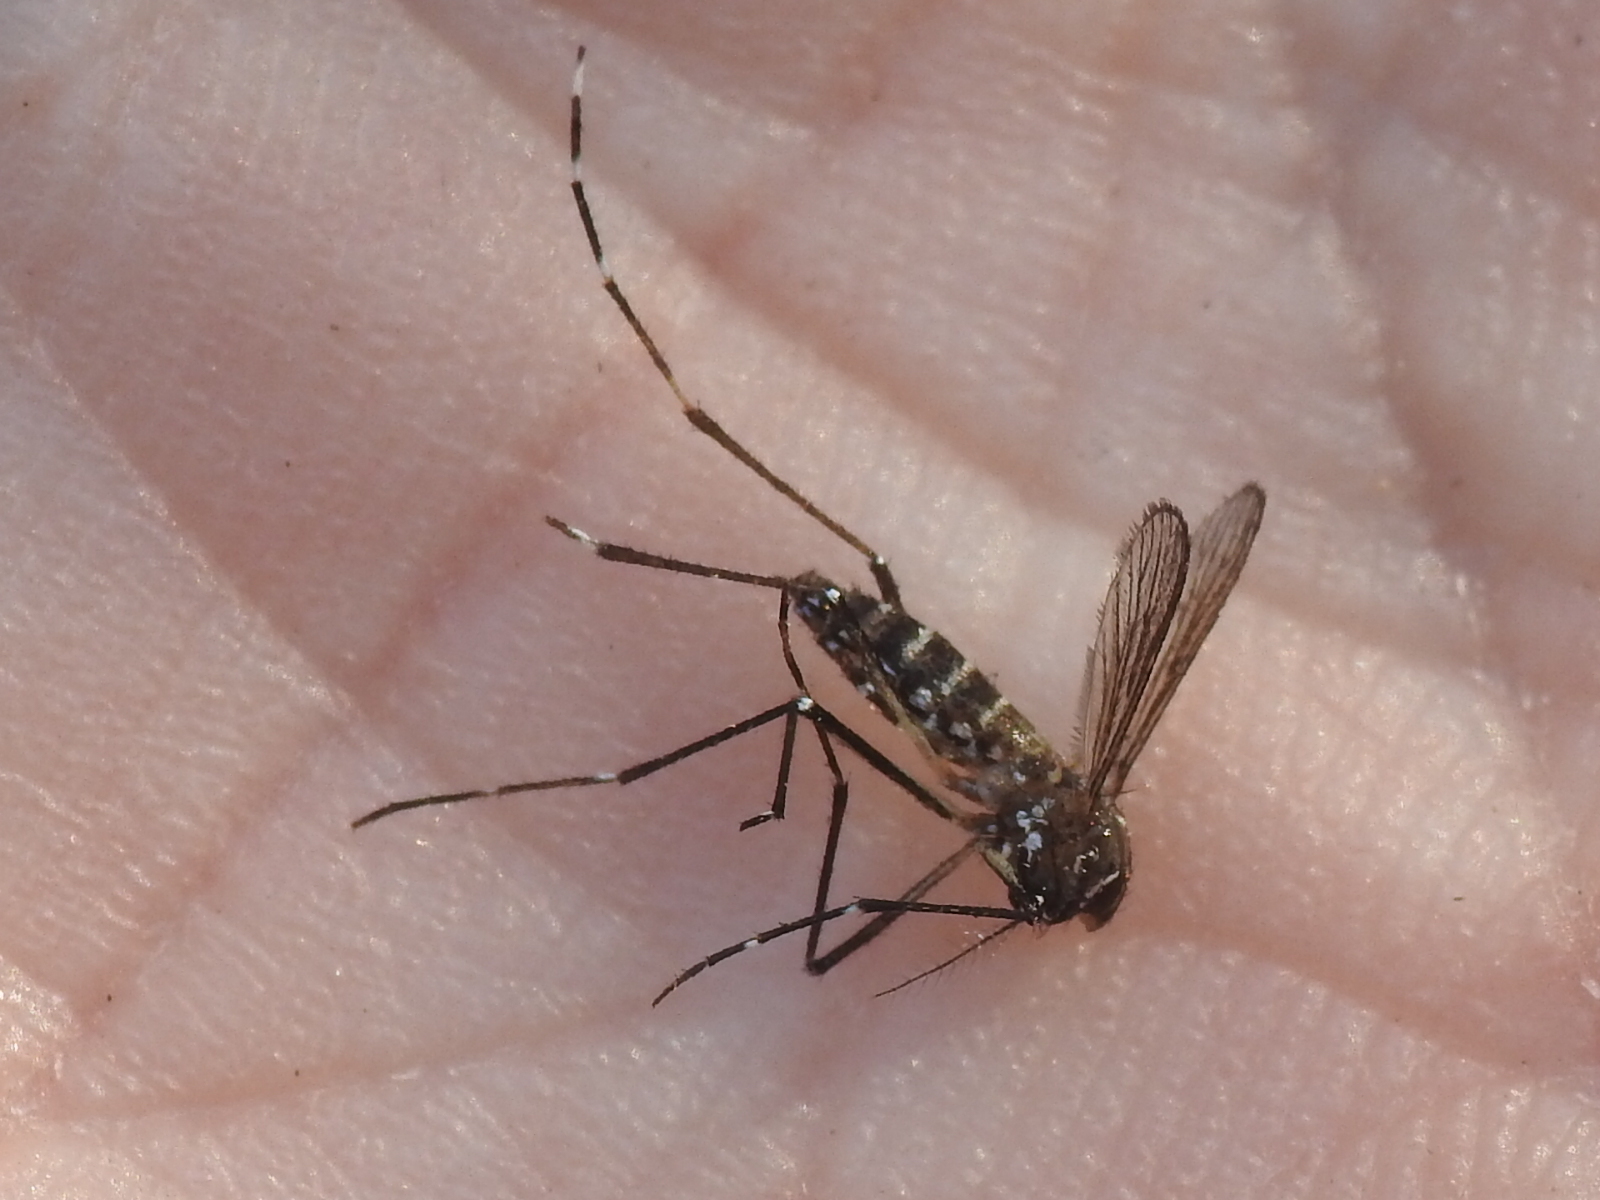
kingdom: Animalia
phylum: Arthropoda
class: Insecta
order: Diptera
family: Culicidae
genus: Aedes
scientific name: Aedes aegypti
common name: Yellow fever mosquito
